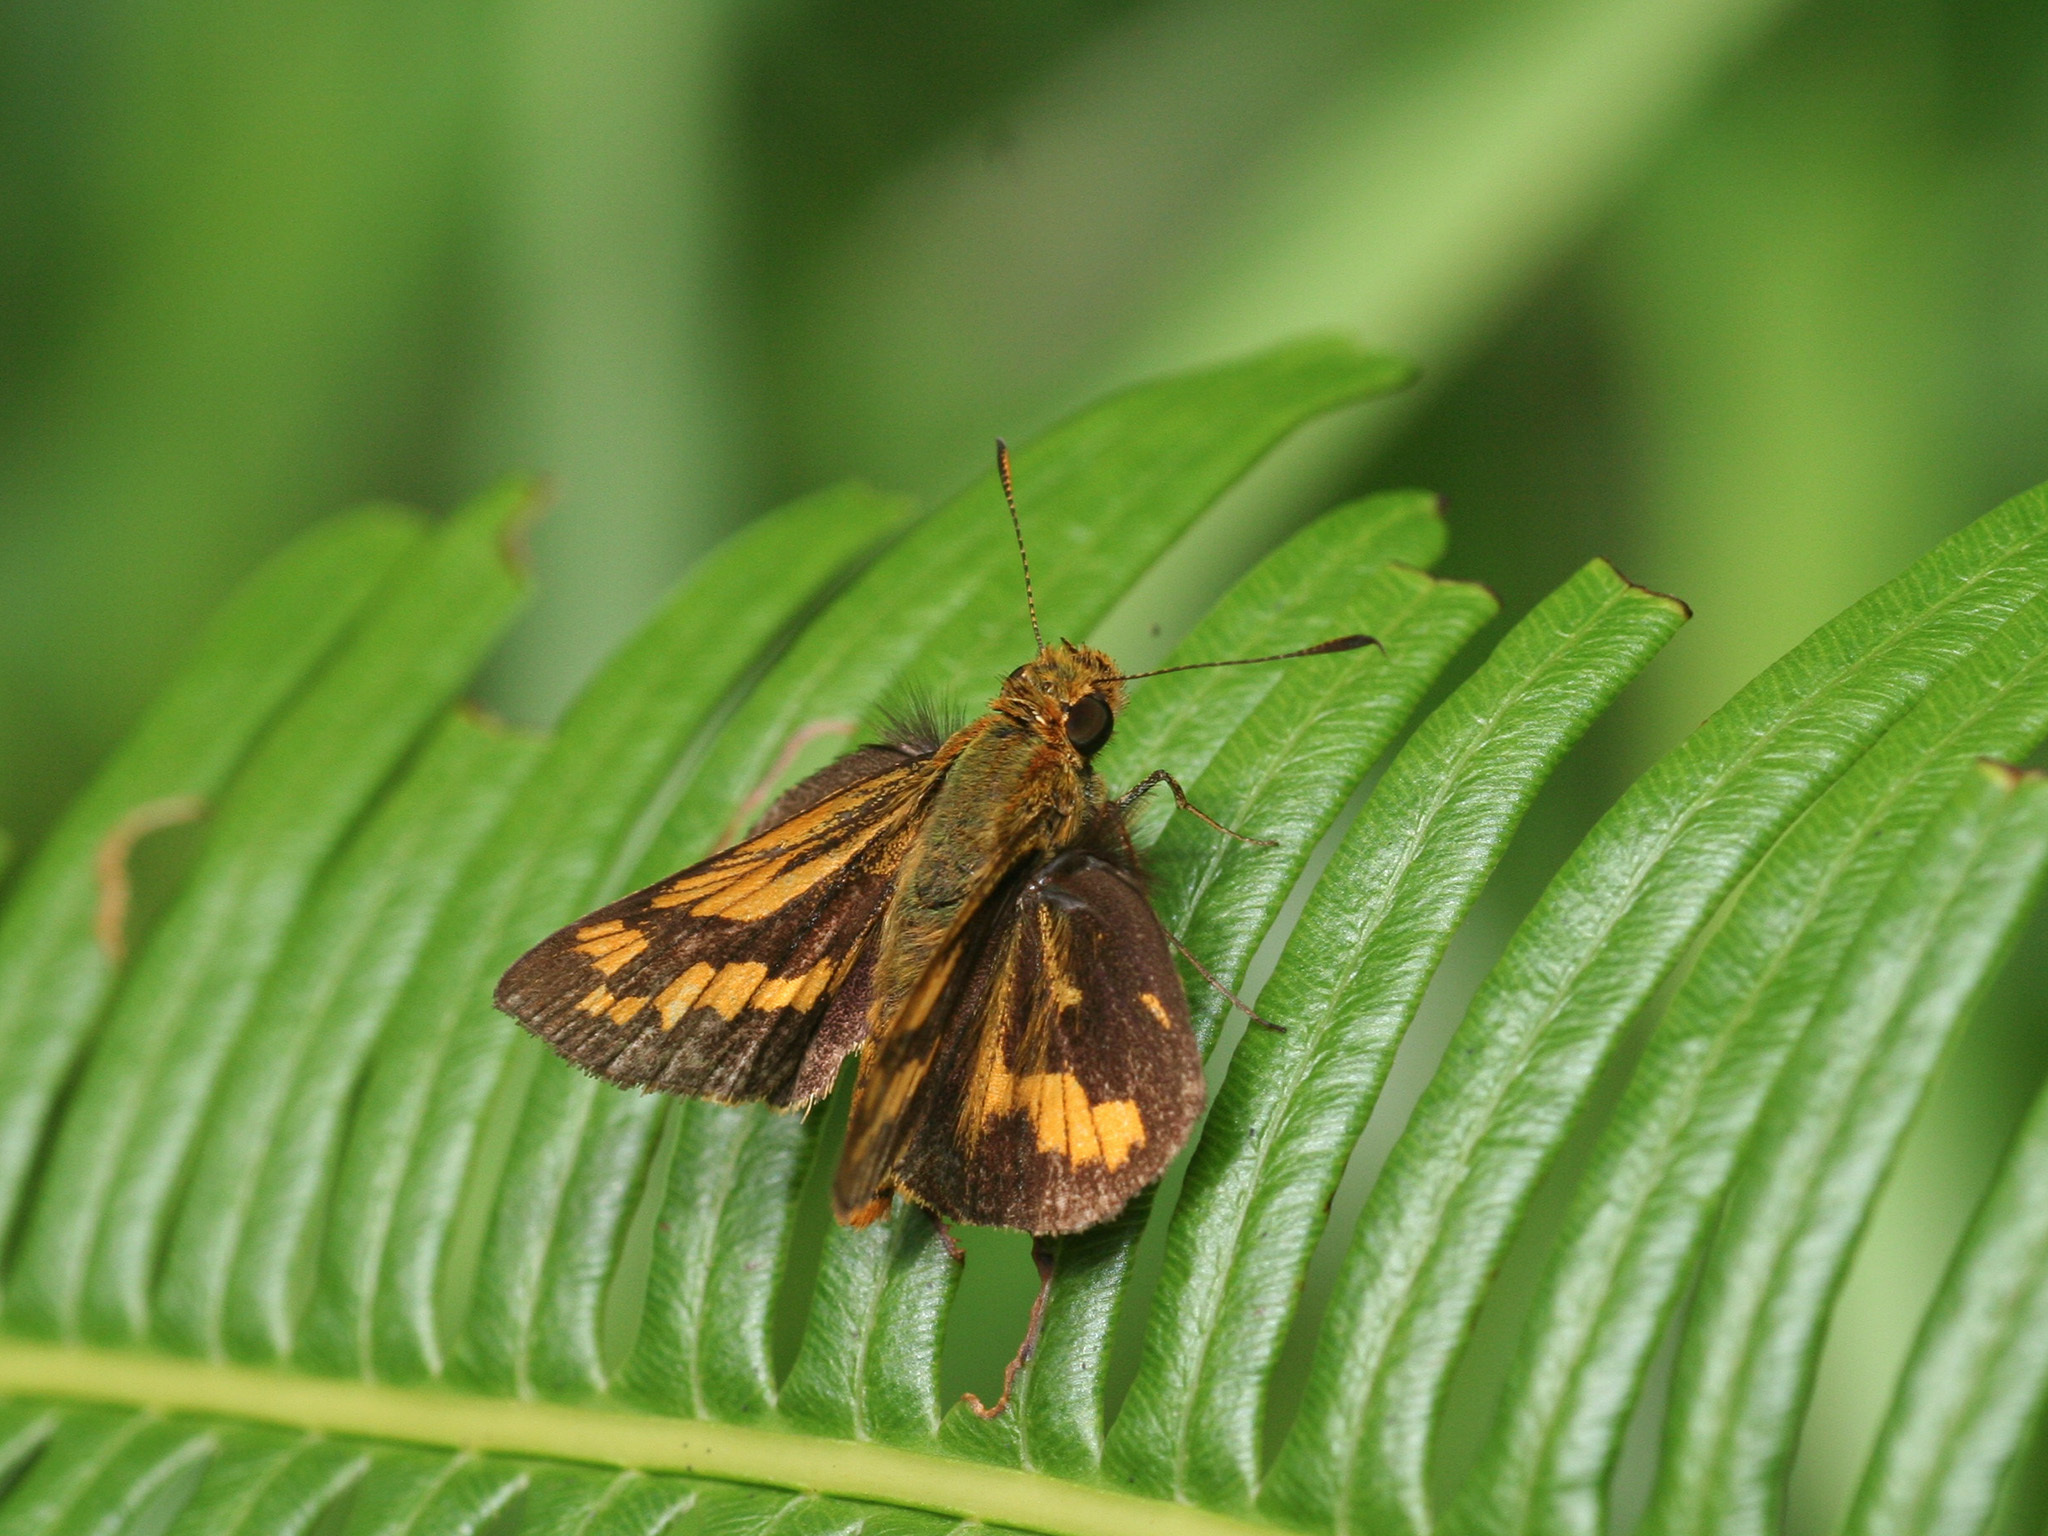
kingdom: Animalia
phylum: Arthropoda
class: Insecta
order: Lepidoptera
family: Hesperiidae
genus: Potanthus
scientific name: Potanthus omaha
